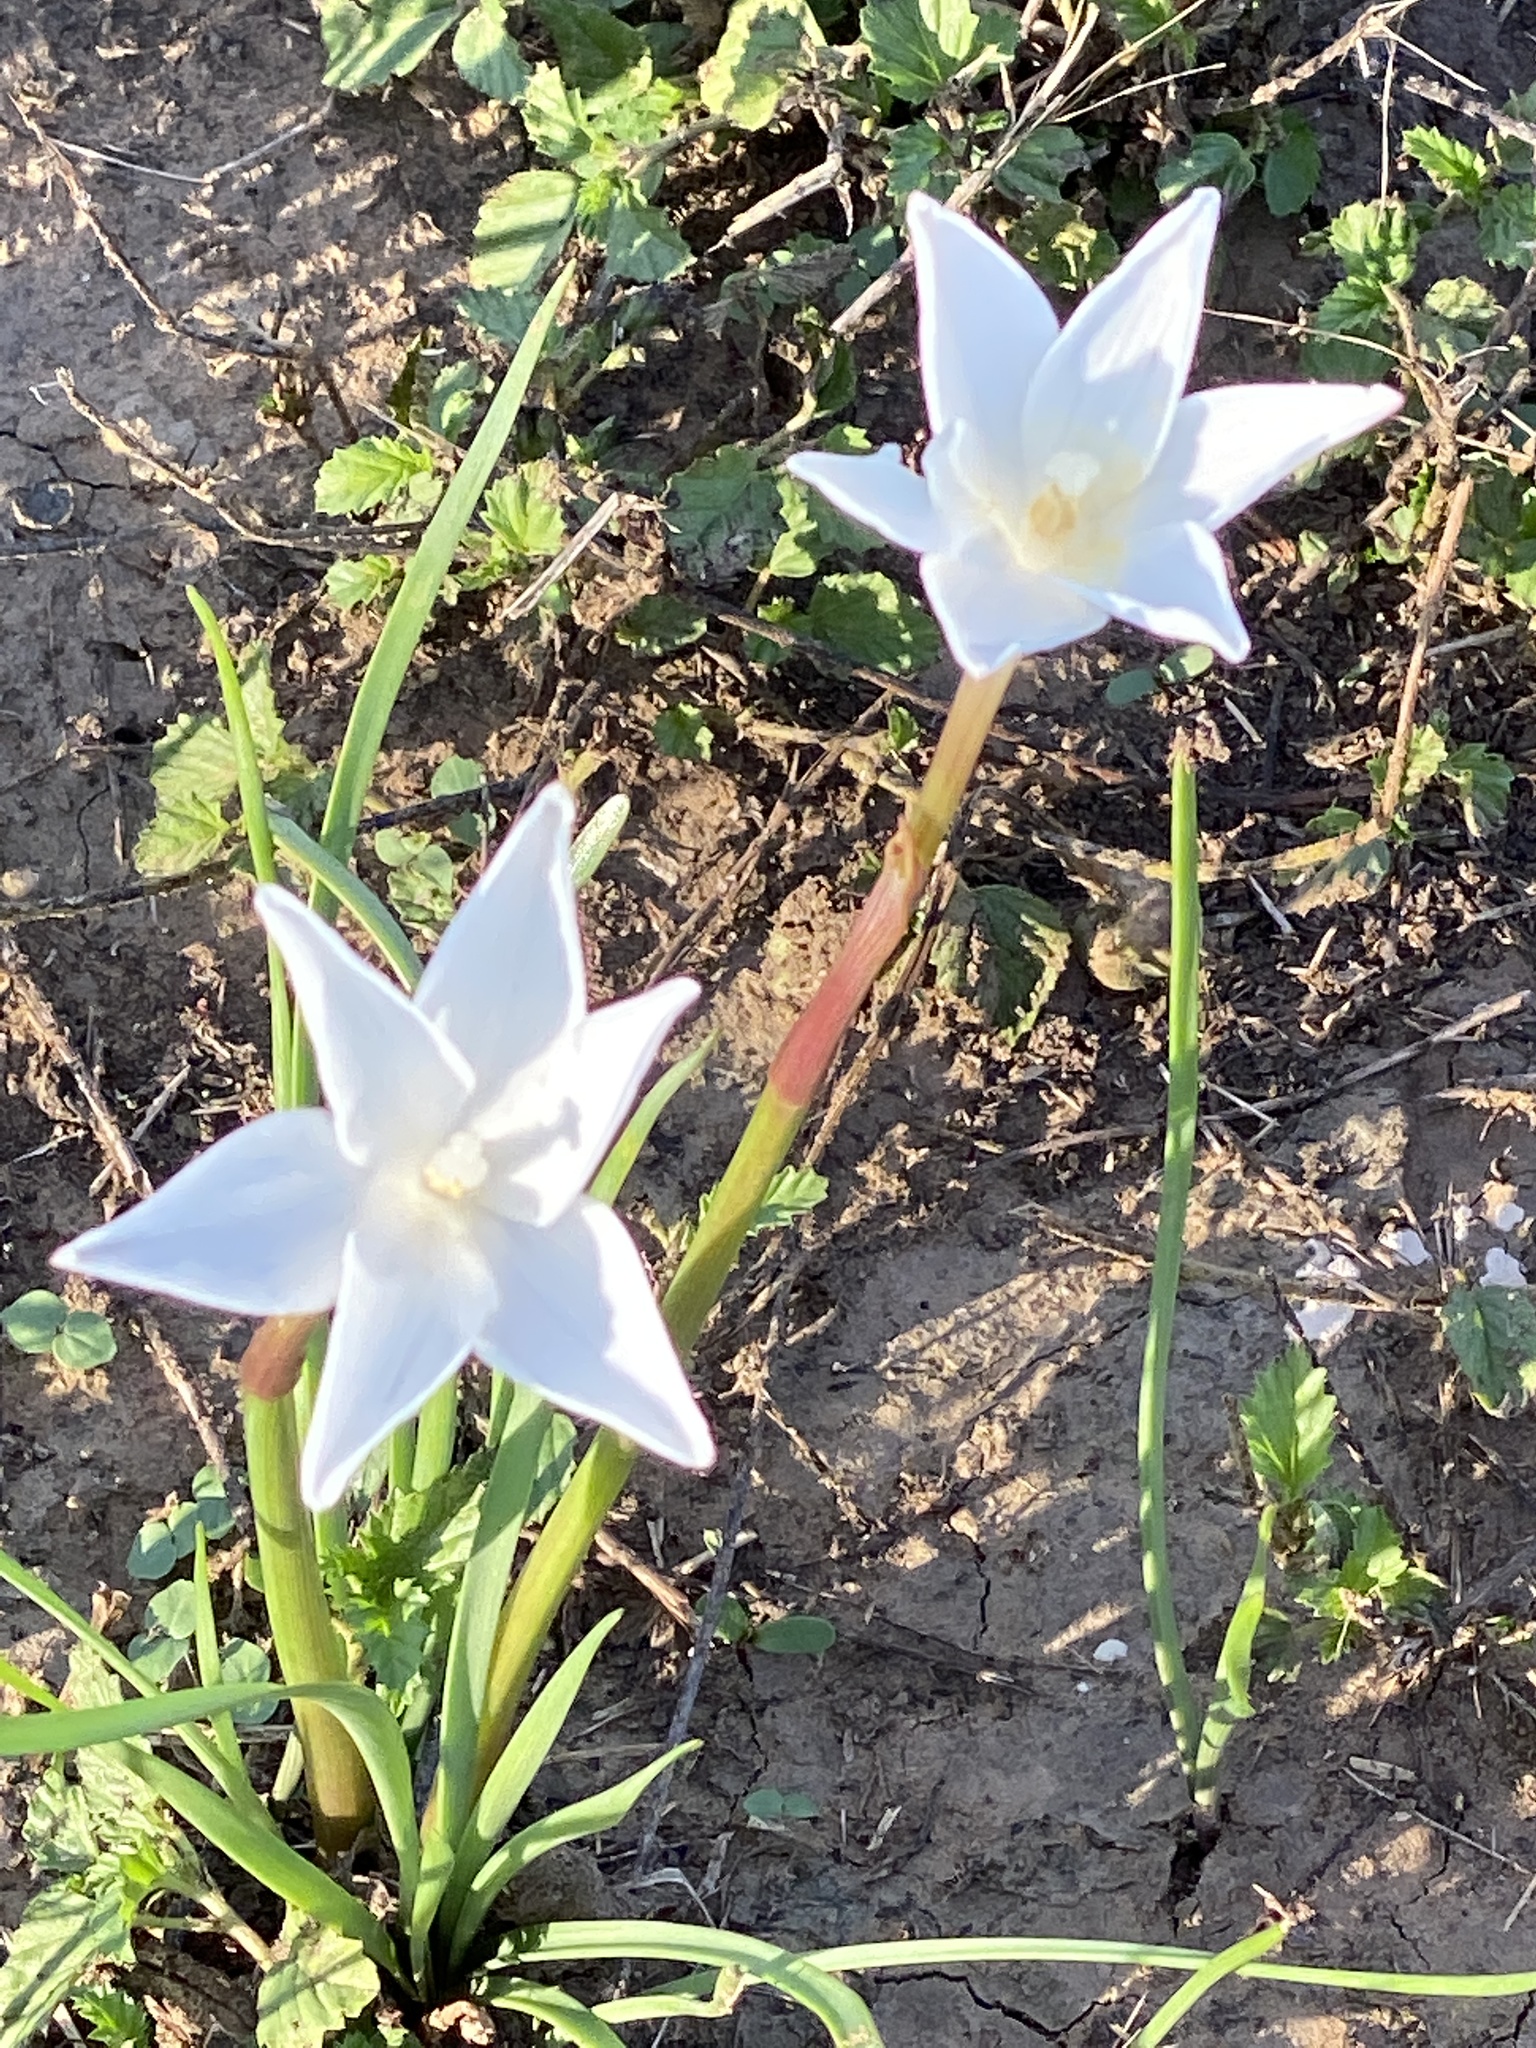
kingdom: Plantae
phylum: Tracheophyta
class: Liliopsida
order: Asparagales
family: Amaryllidaceae
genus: Zephyranthes
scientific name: Zephyranthes chlorosolen
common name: Evening rain-lily
